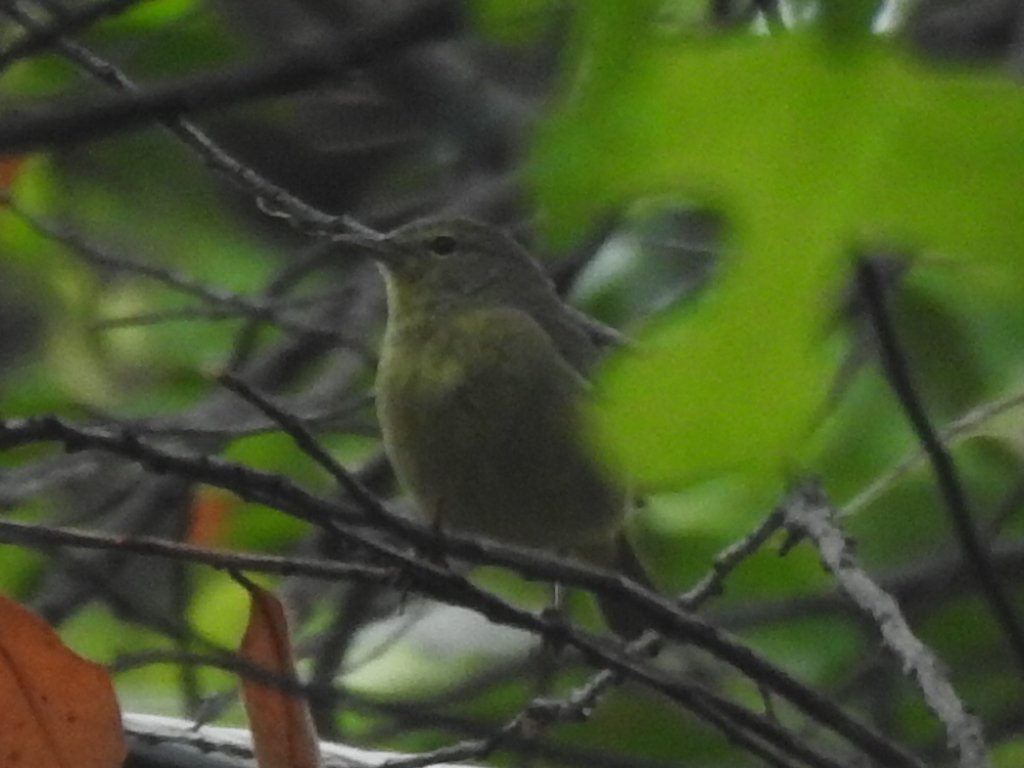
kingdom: Animalia
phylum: Chordata
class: Aves
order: Passeriformes
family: Parulidae
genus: Leiothlypis
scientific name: Leiothlypis celata
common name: Orange-crowned warbler
